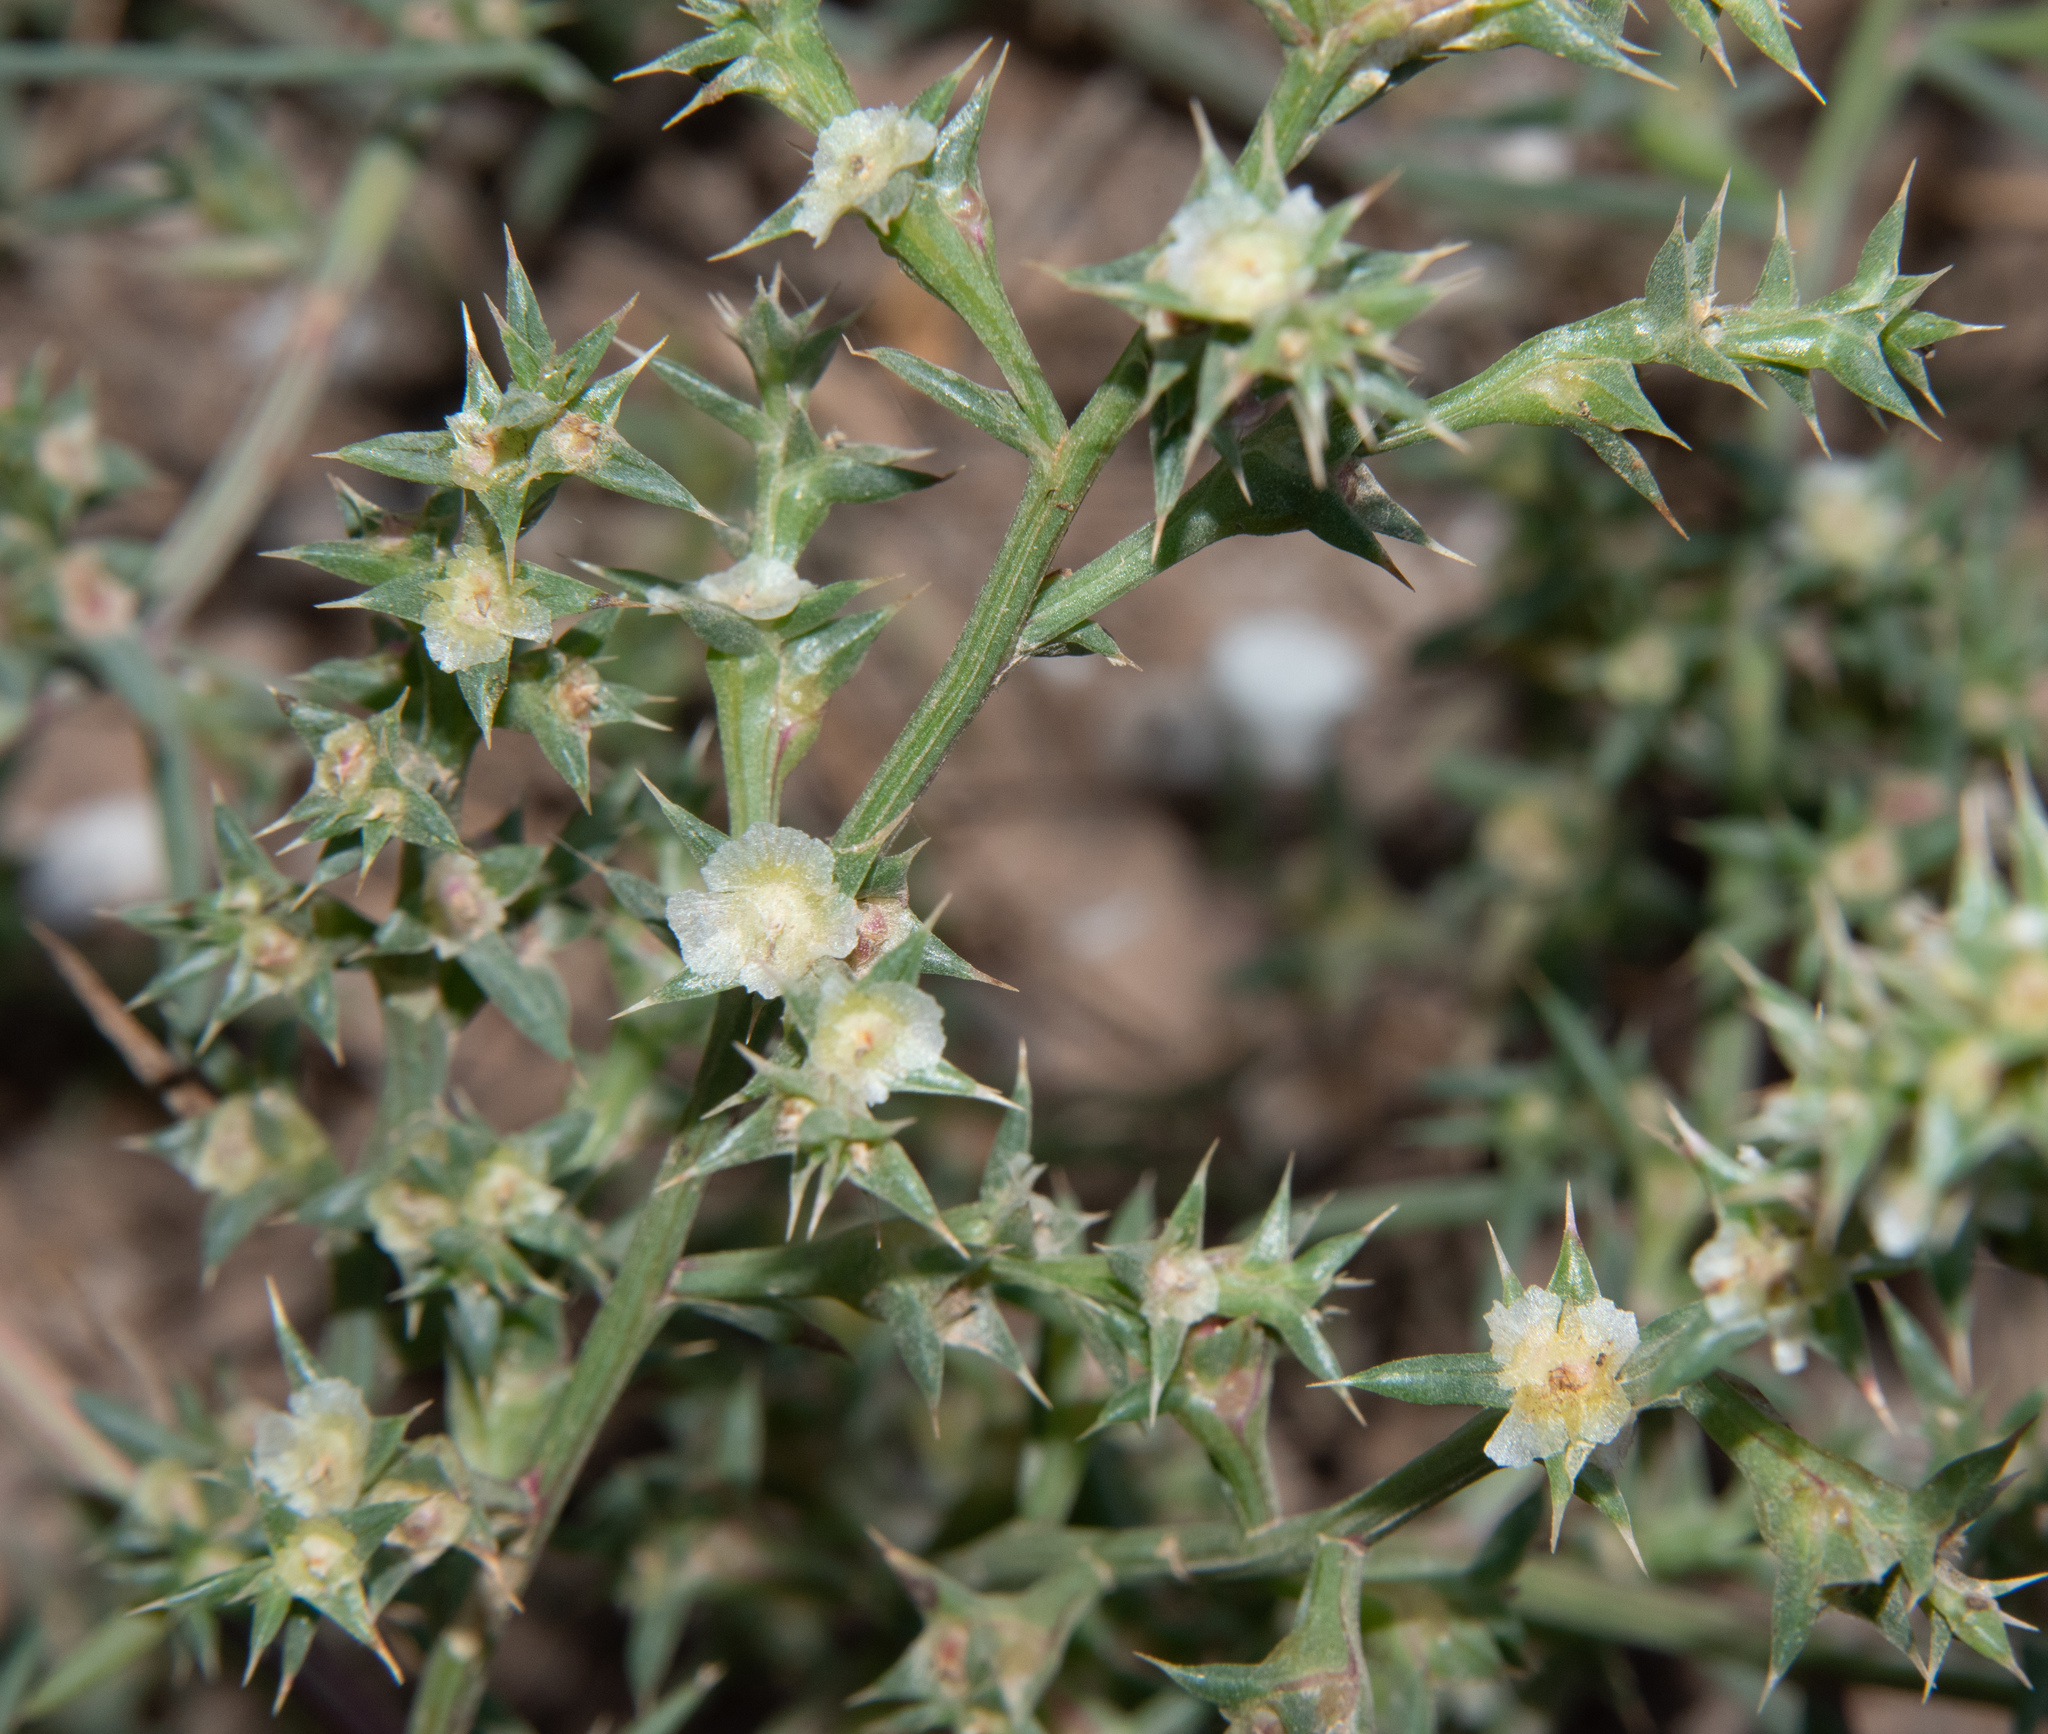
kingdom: Plantae
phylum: Tracheophyta
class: Magnoliopsida
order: Caryophyllales
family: Amaranthaceae
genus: Salsola
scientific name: Salsola kali
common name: Saltwort
